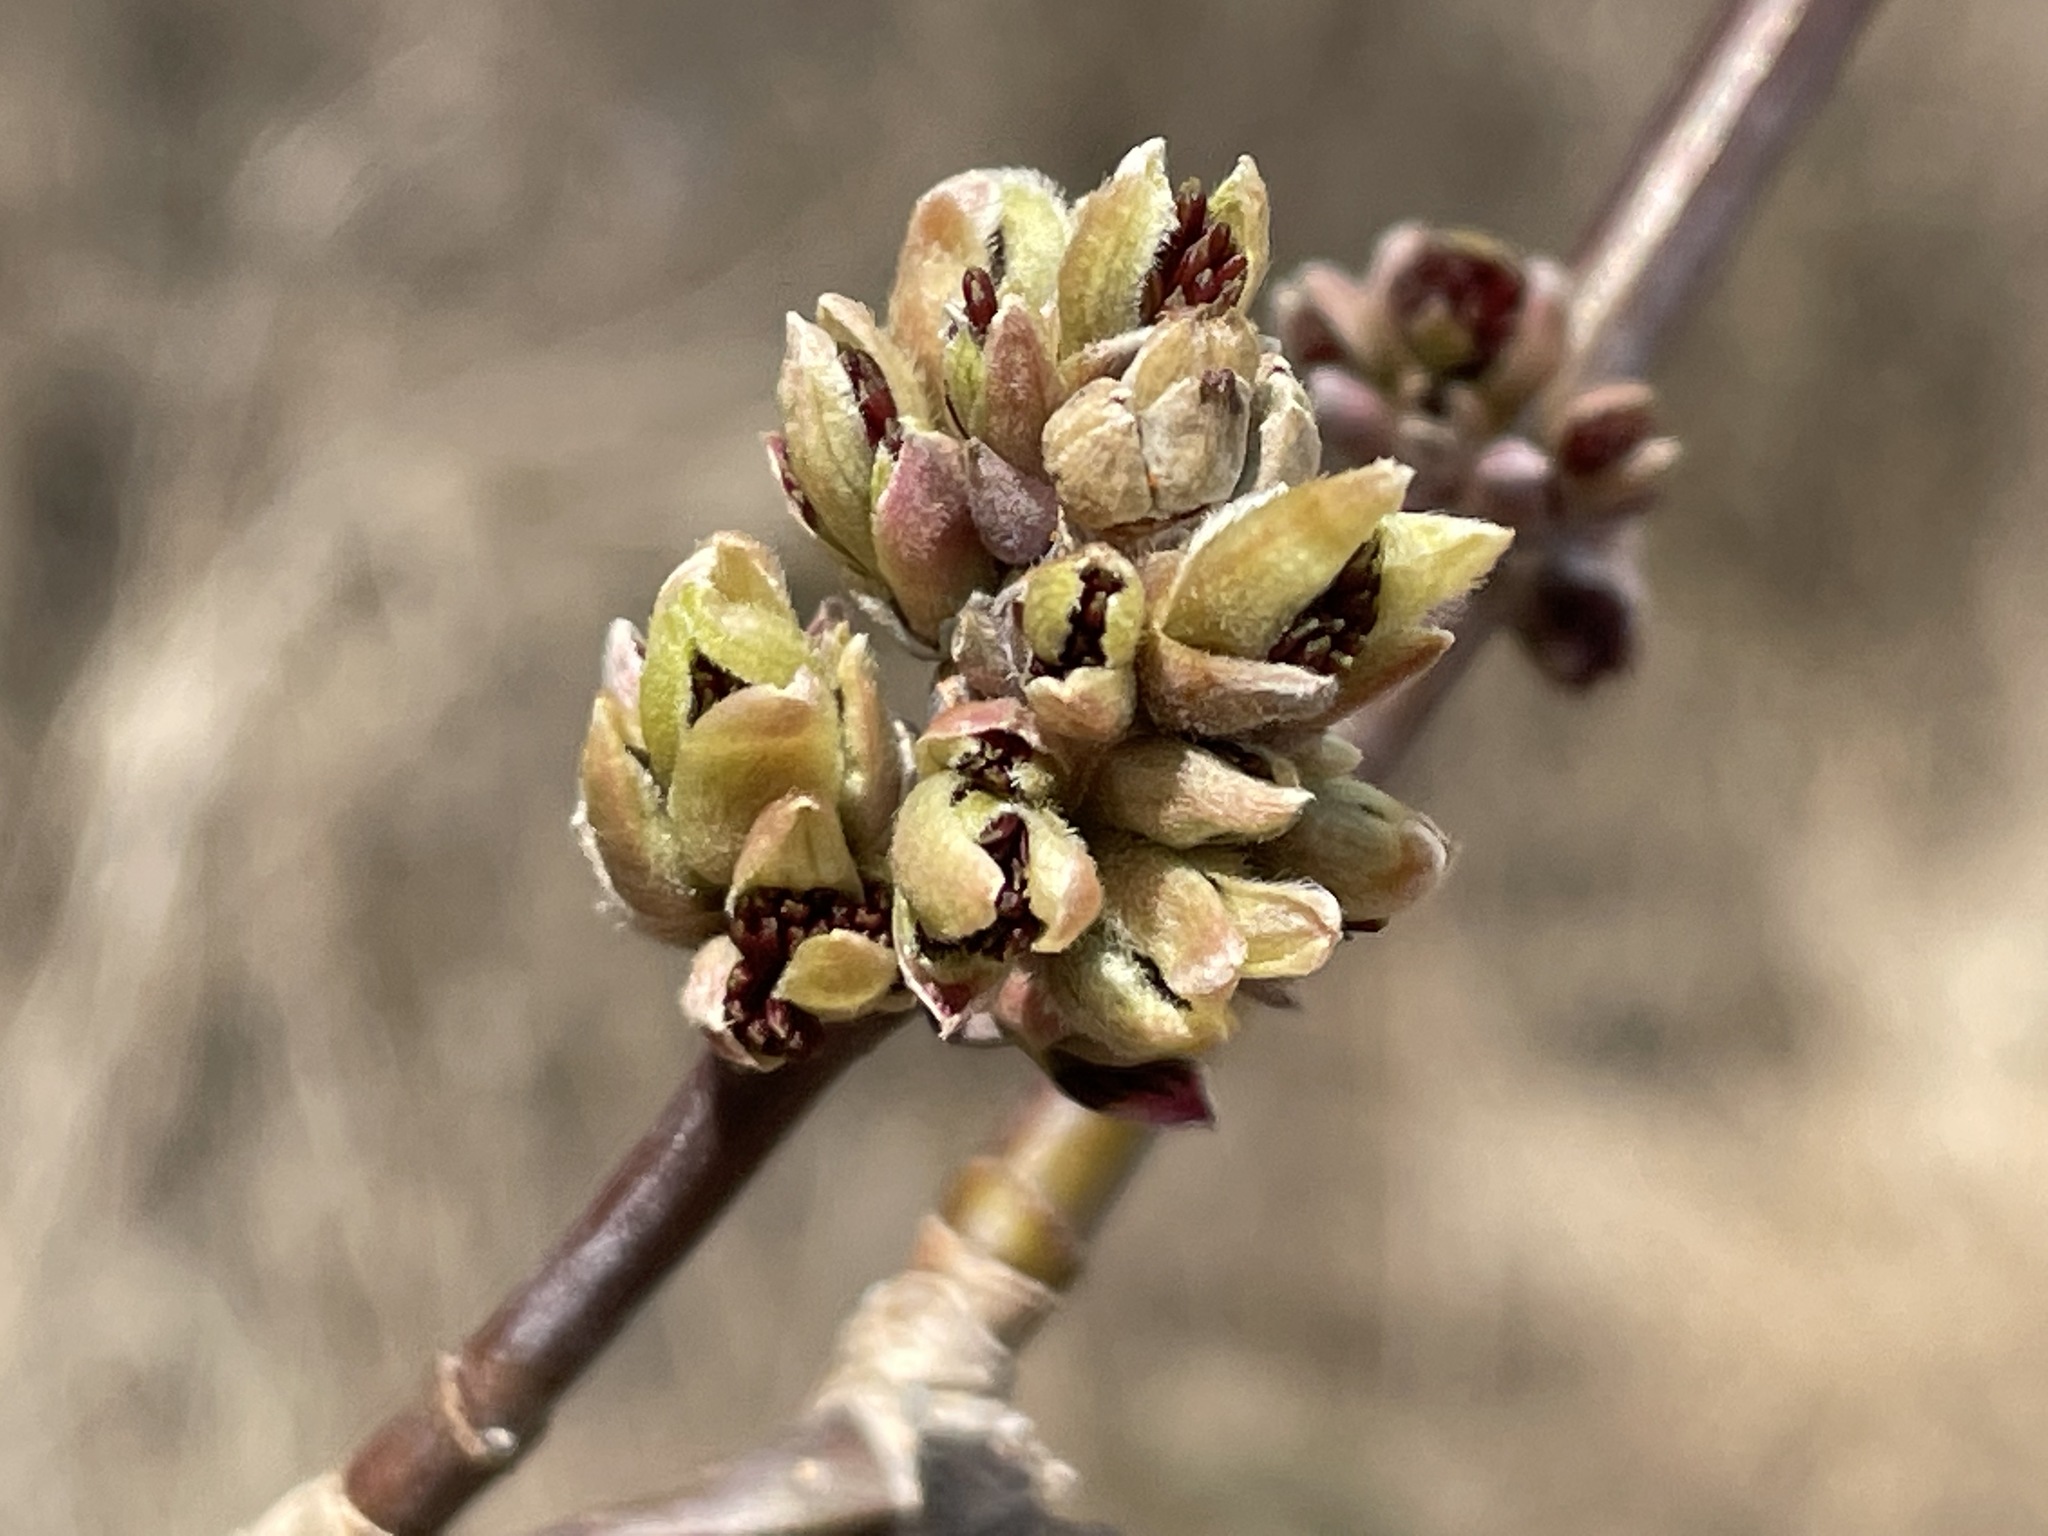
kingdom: Plantae
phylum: Tracheophyta
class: Magnoliopsida
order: Sapindales
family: Sapindaceae
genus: Acer
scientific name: Acer negundo
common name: Ashleaf maple
